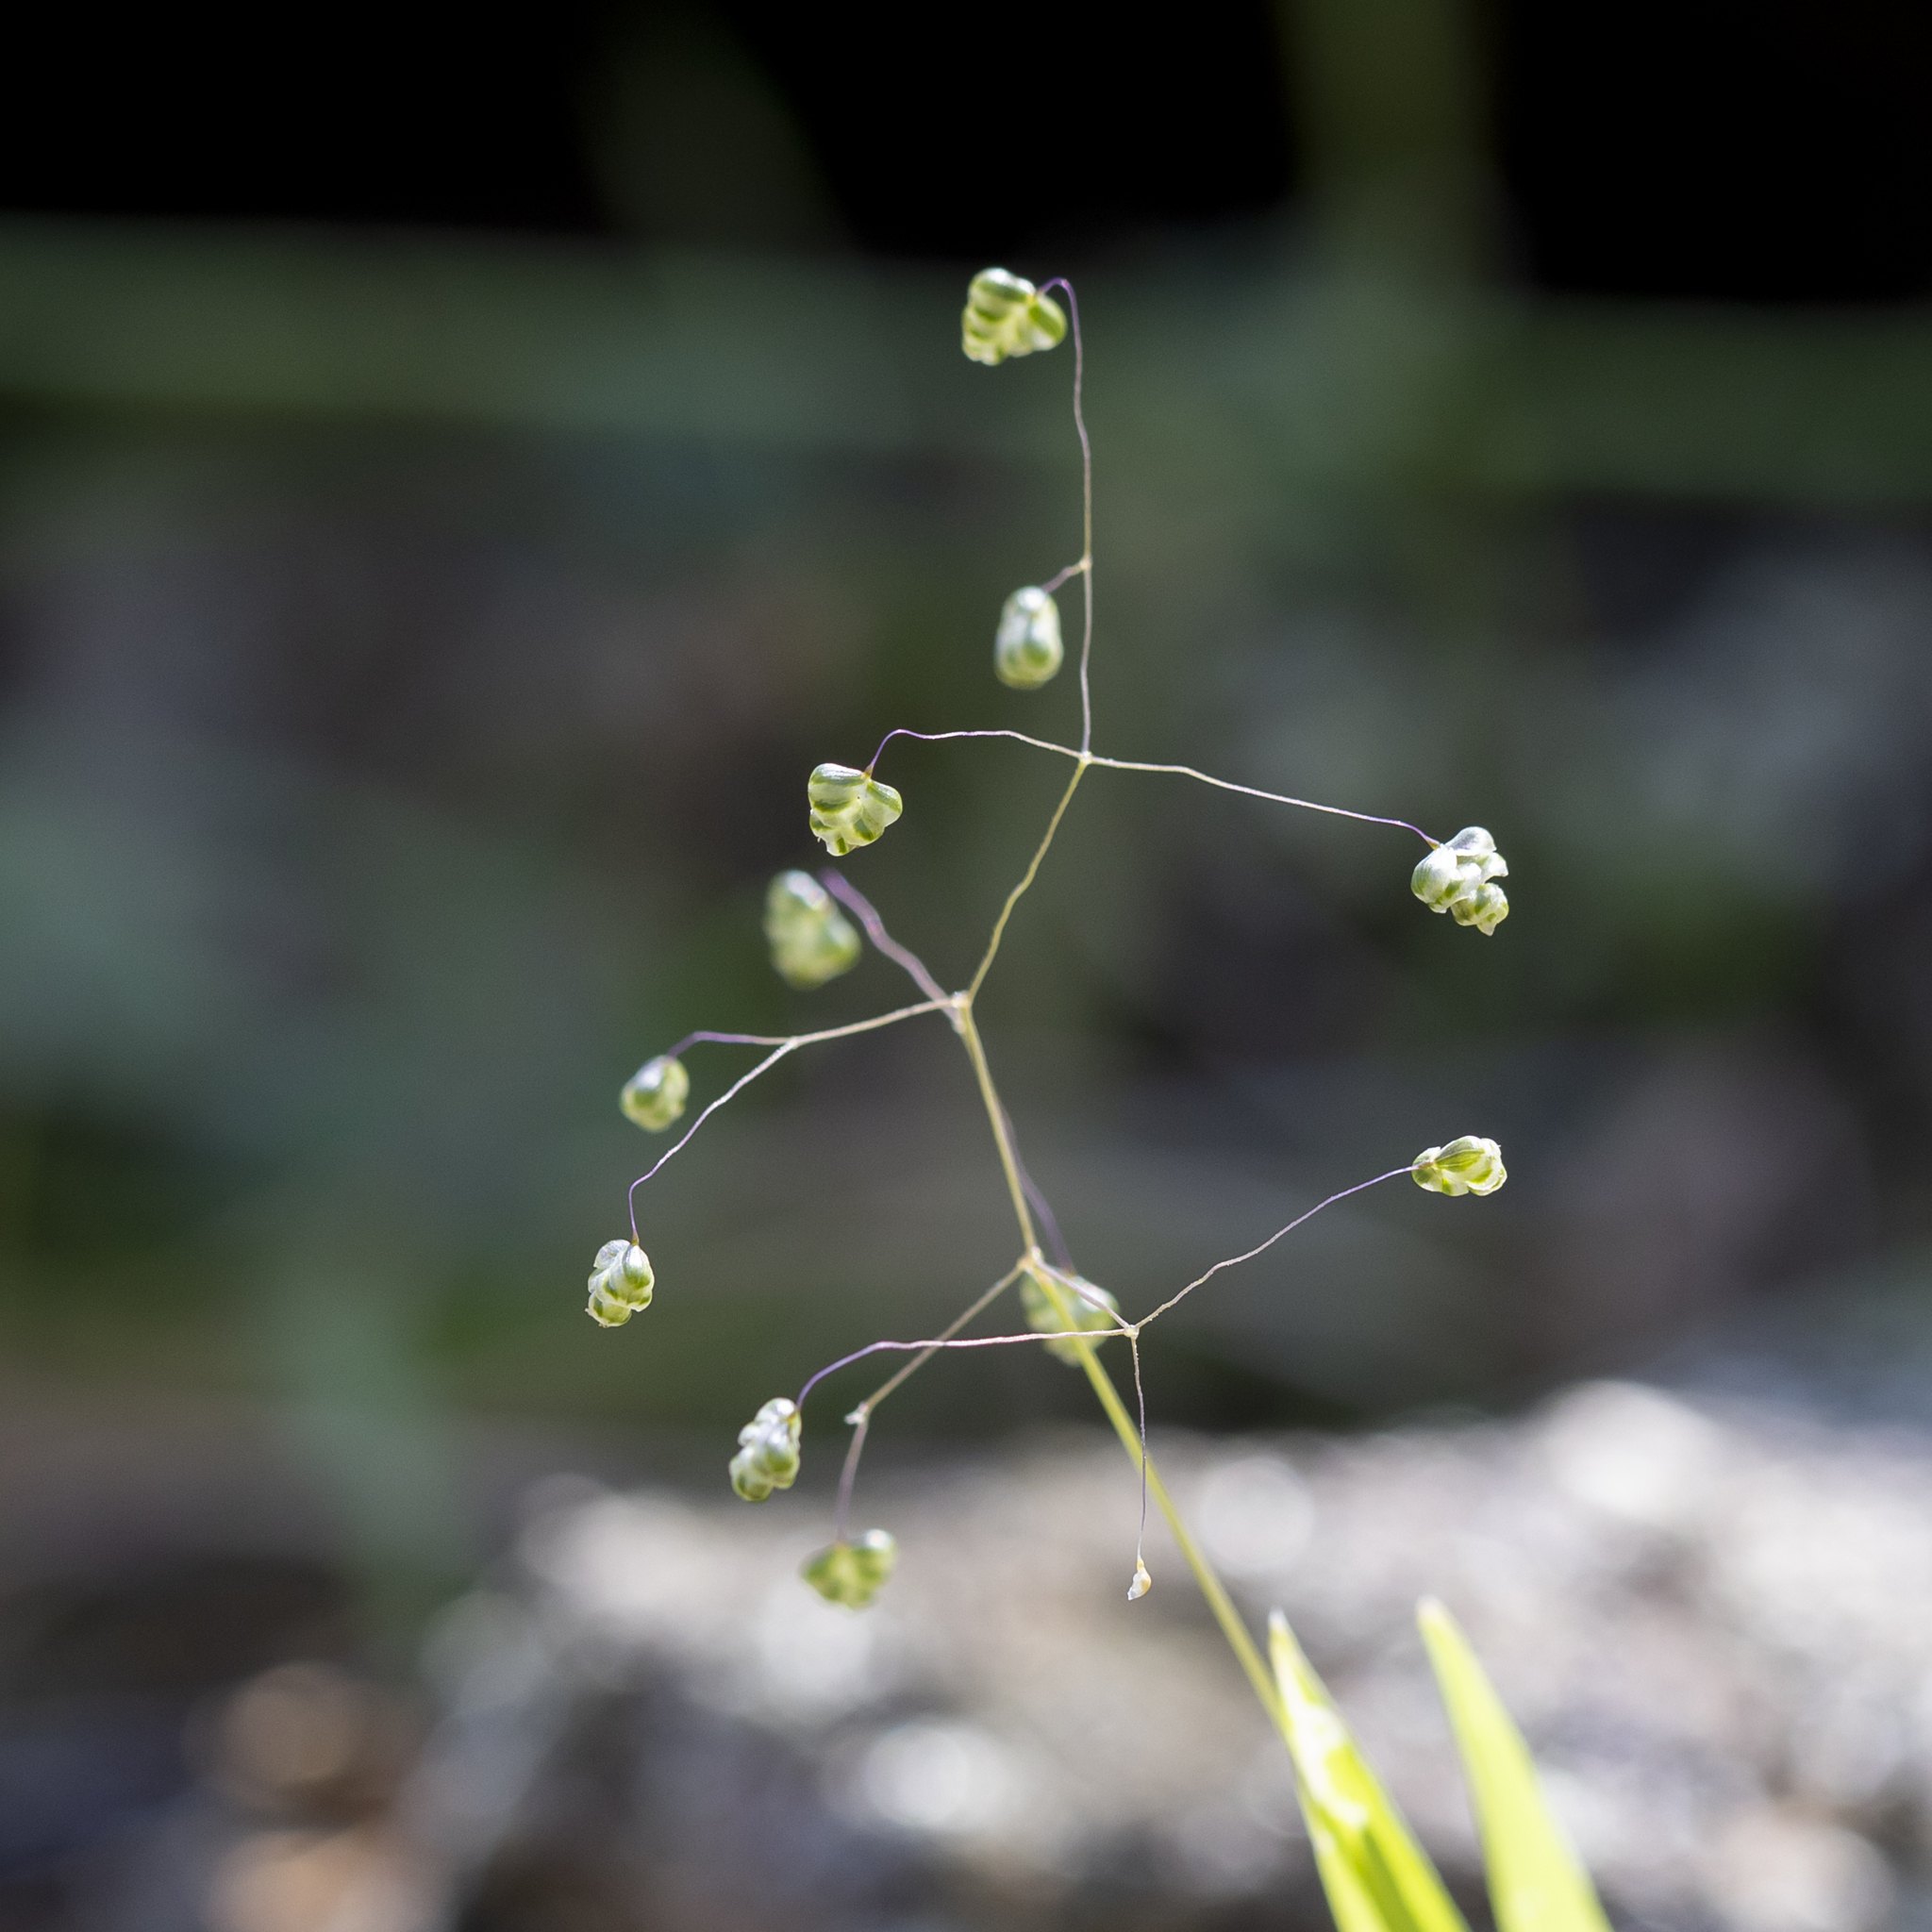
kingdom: Plantae
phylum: Tracheophyta
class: Liliopsida
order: Poales
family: Poaceae
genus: Briza
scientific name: Briza minor
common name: Lesser quaking-grass
